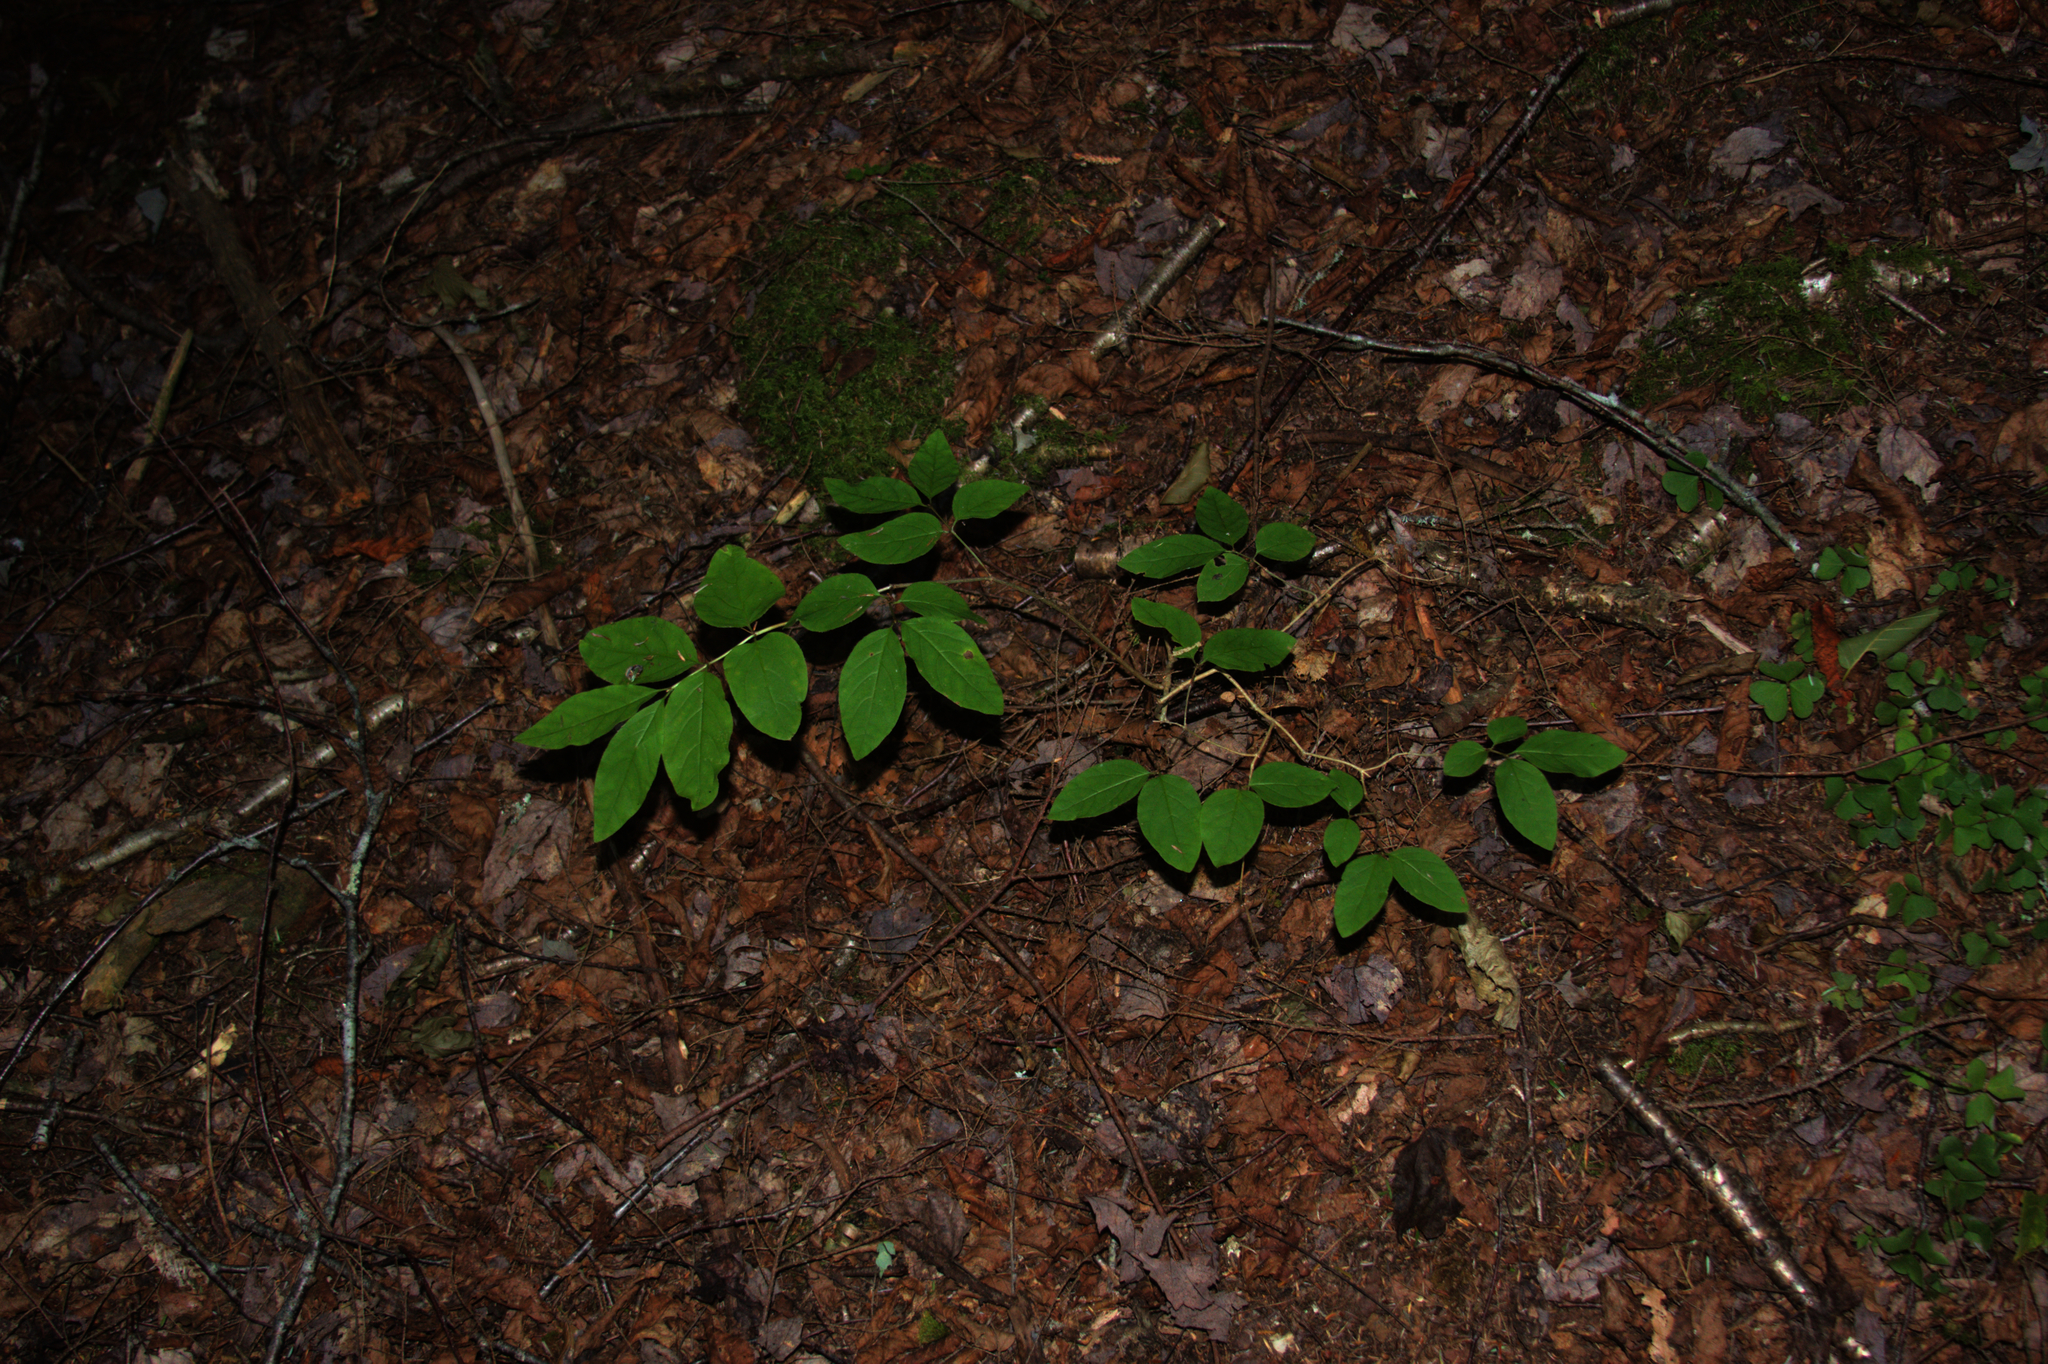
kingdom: Plantae
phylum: Tracheophyta
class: Magnoliopsida
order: Dipsacales
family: Caprifoliaceae
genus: Lonicera
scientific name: Lonicera canadensis
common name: American fly-honeysuckle
